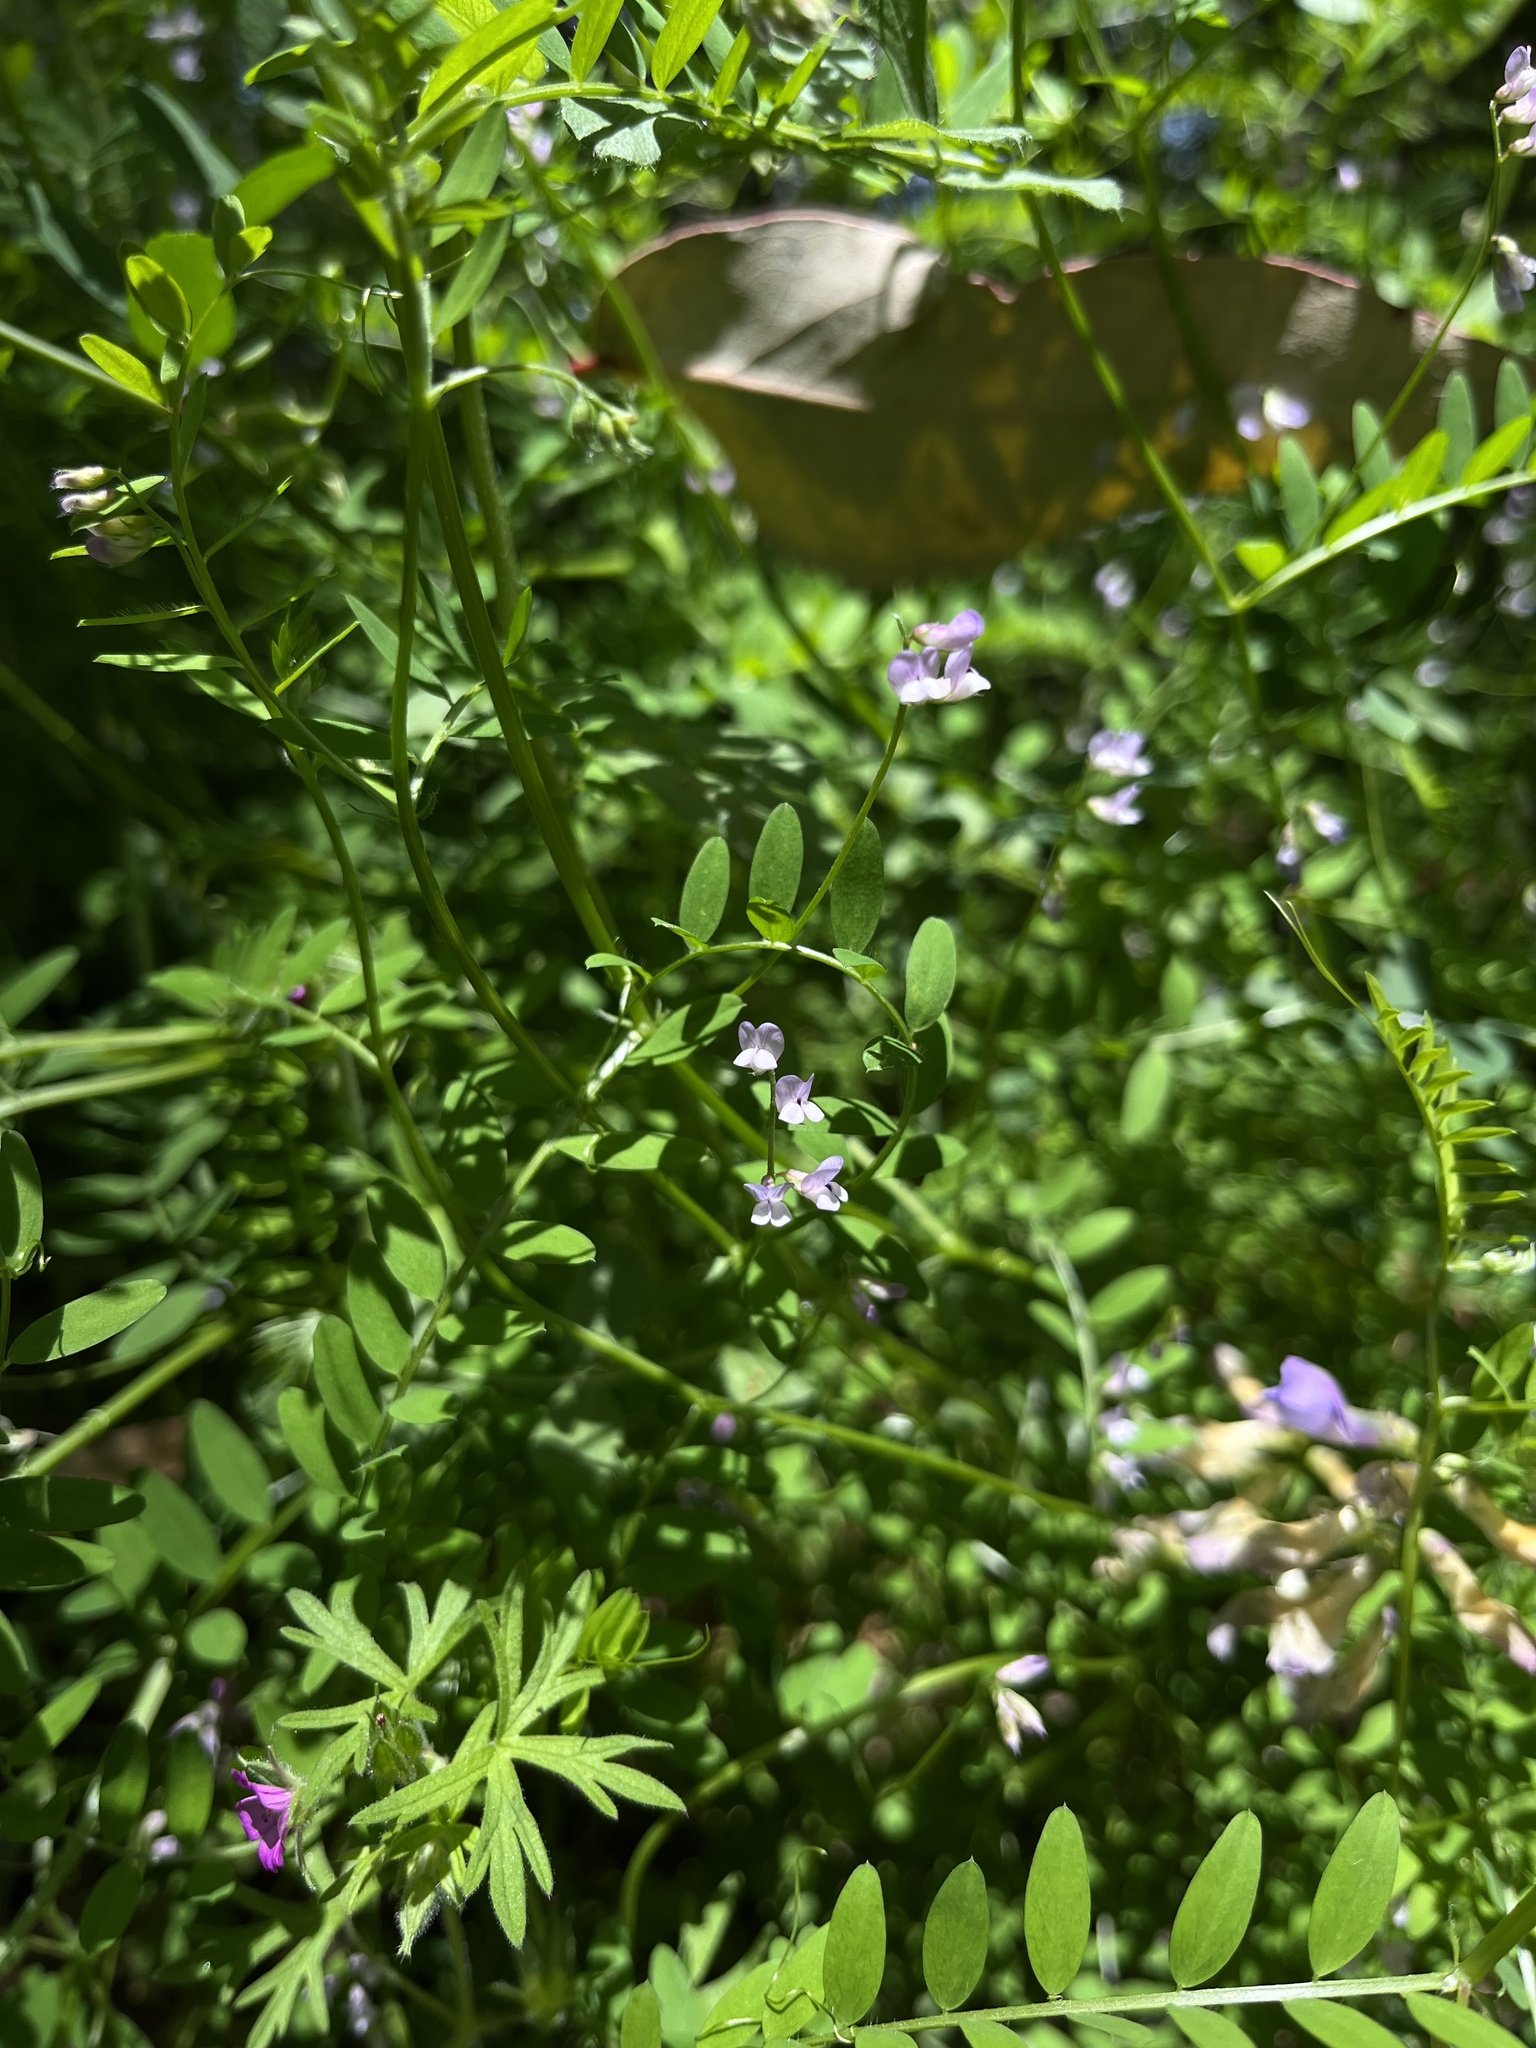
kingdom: Plantae
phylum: Tracheophyta
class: Magnoliopsida
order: Fabales
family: Fabaceae
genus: Vicia
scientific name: Vicia disperma
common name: European vetch
